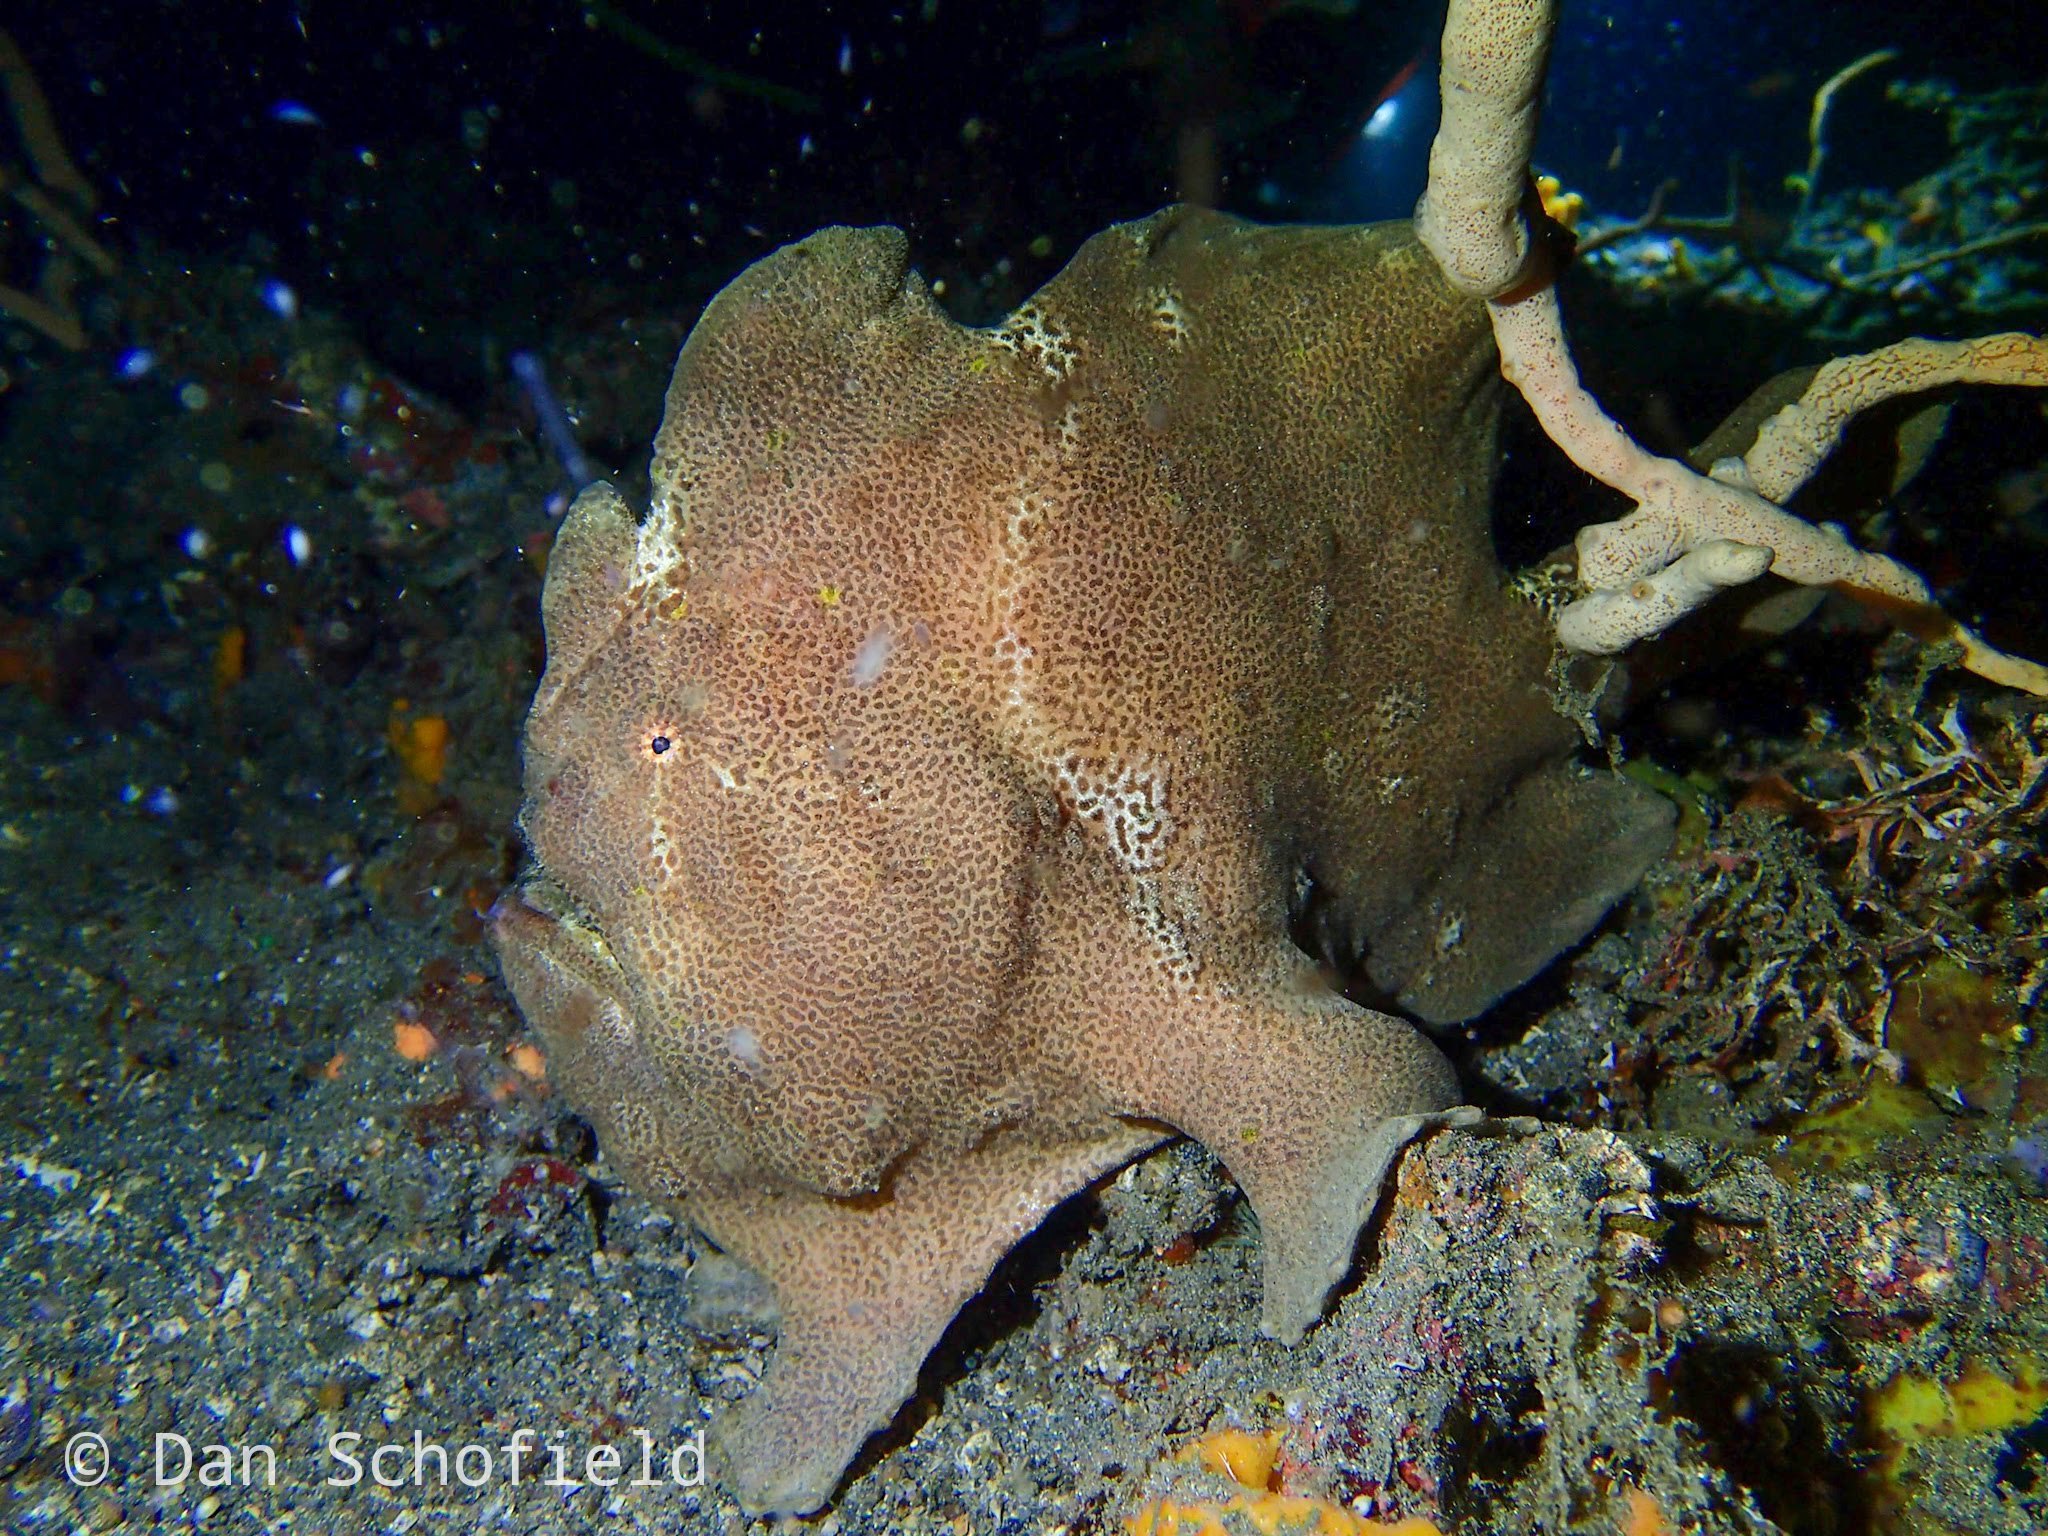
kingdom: Animalia
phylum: Chordata
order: Lophiiformes
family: Antennariidae
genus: Antennarius
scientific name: Antennarius commerson
